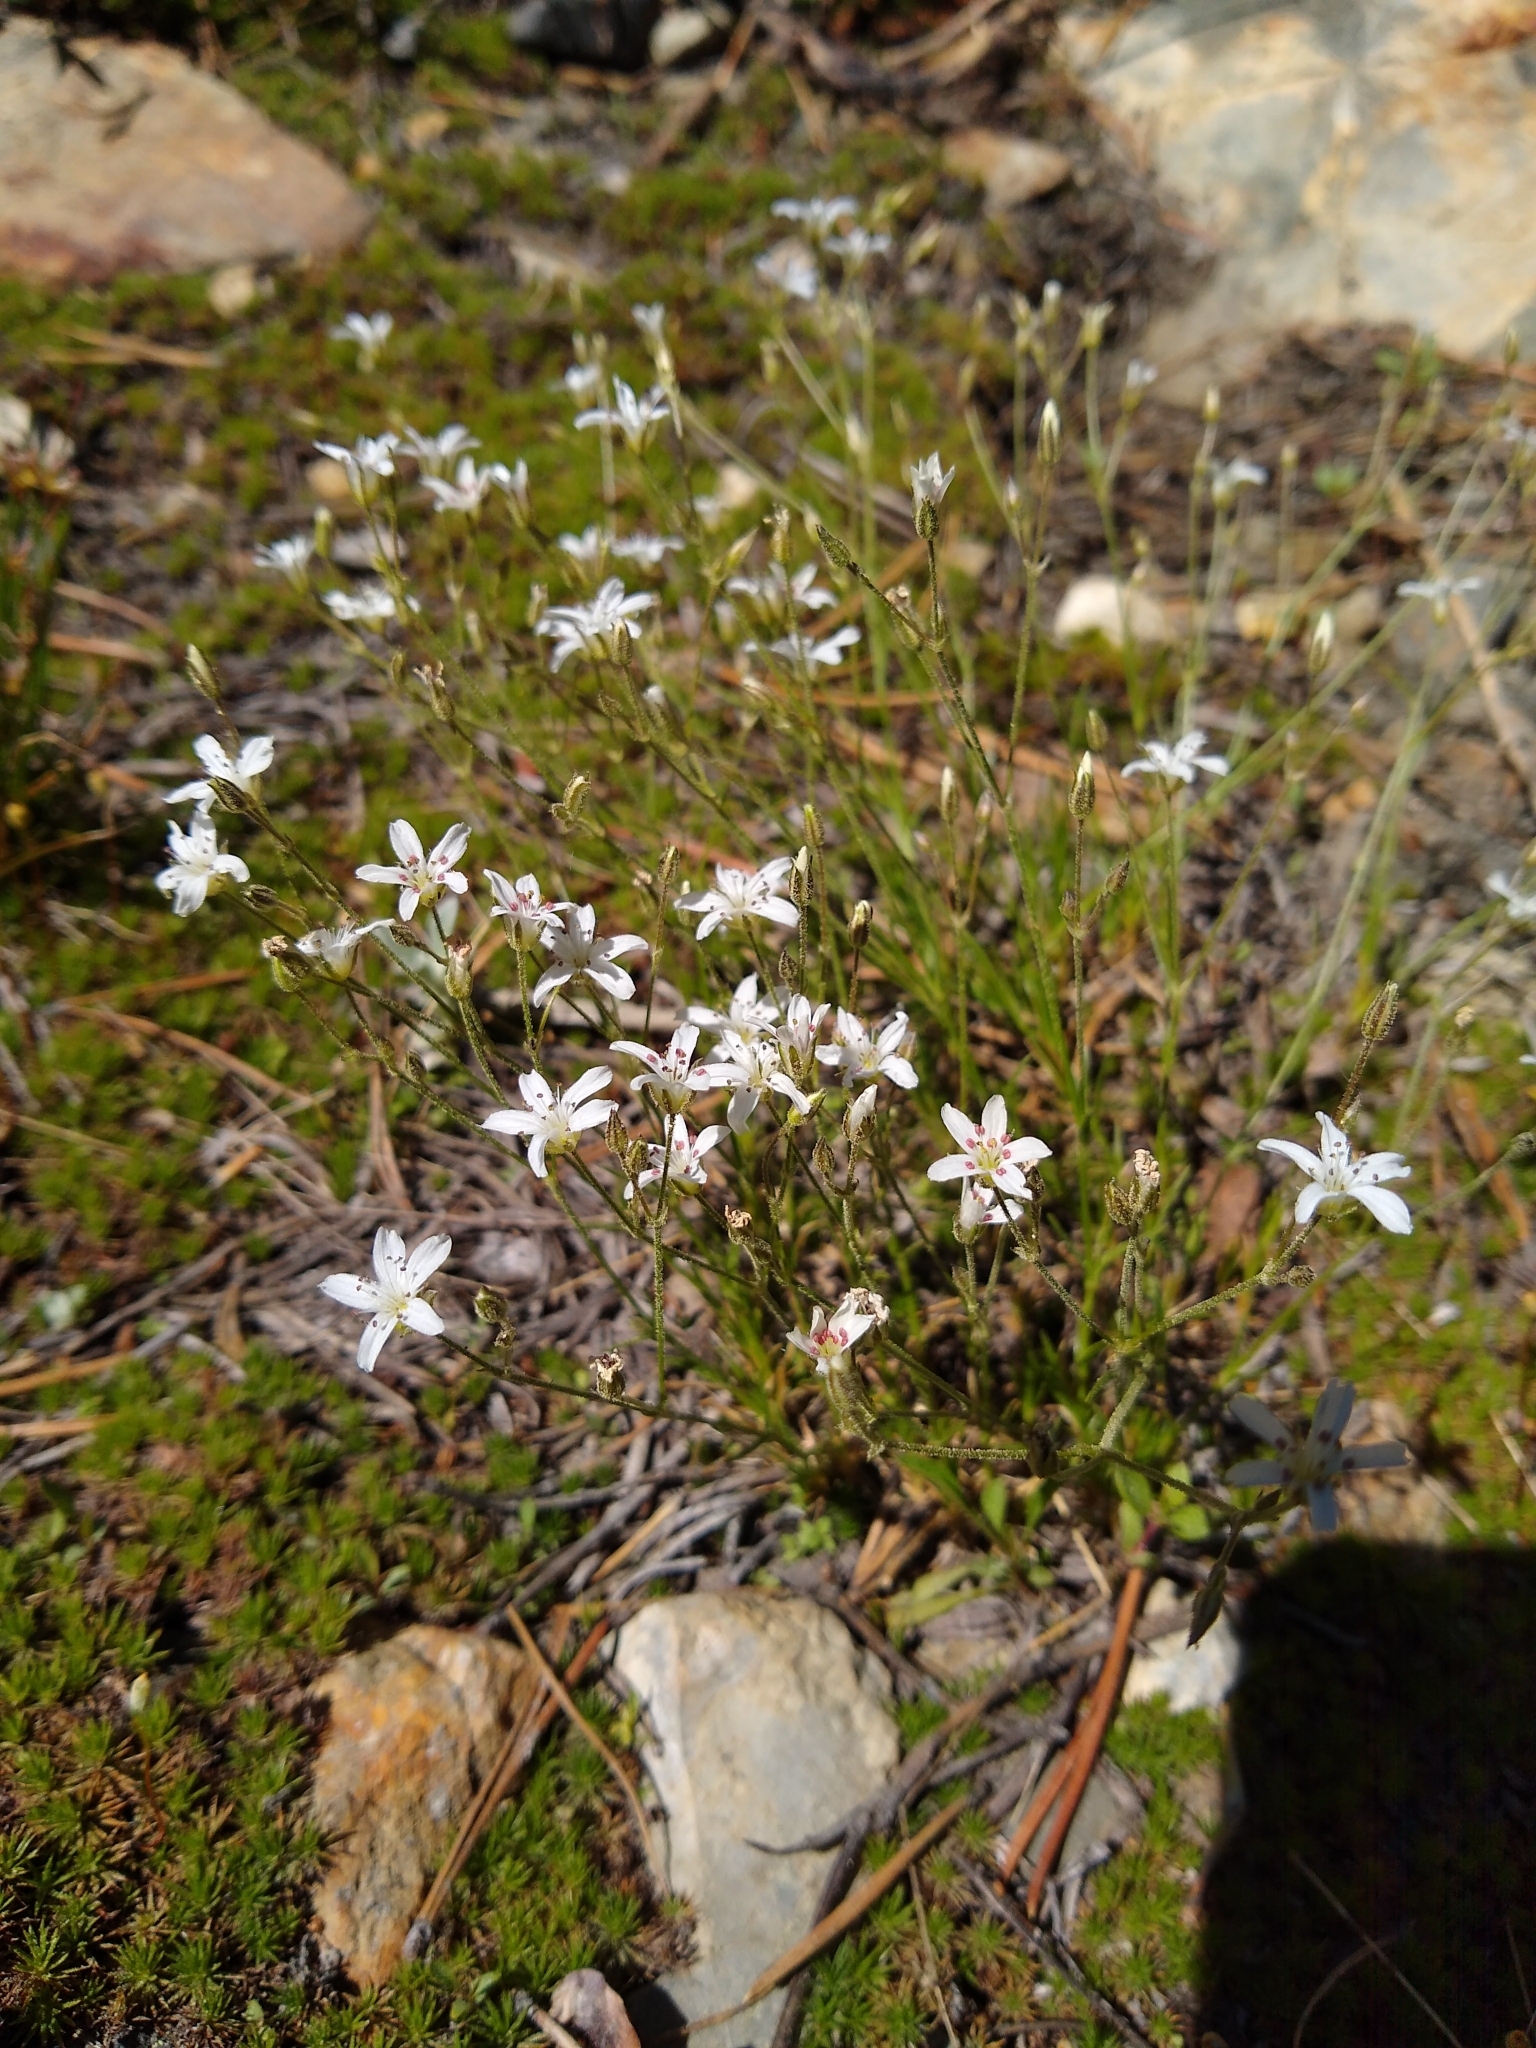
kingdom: Plantae
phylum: Tracheophyta
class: Magnoliopsida
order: Caryophyllales
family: Caryophyllaceae
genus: Eremogone
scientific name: Eremogone kingii
